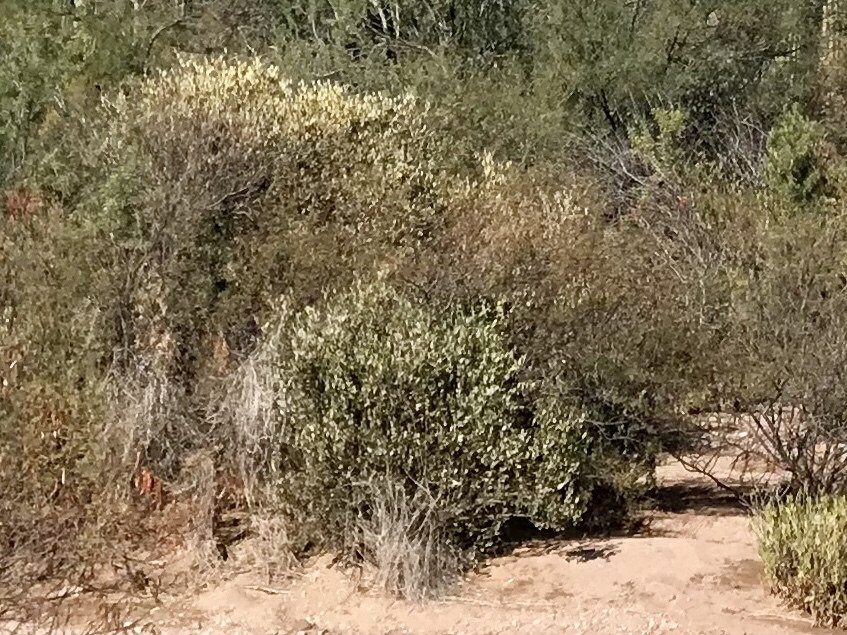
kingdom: Plantae
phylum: Tracheophyta
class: Magnoliopsida
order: Caryophyllales
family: Simmondsiaceae
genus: Simmondsia
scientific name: Simmondsia chinensis
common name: Jojoba
